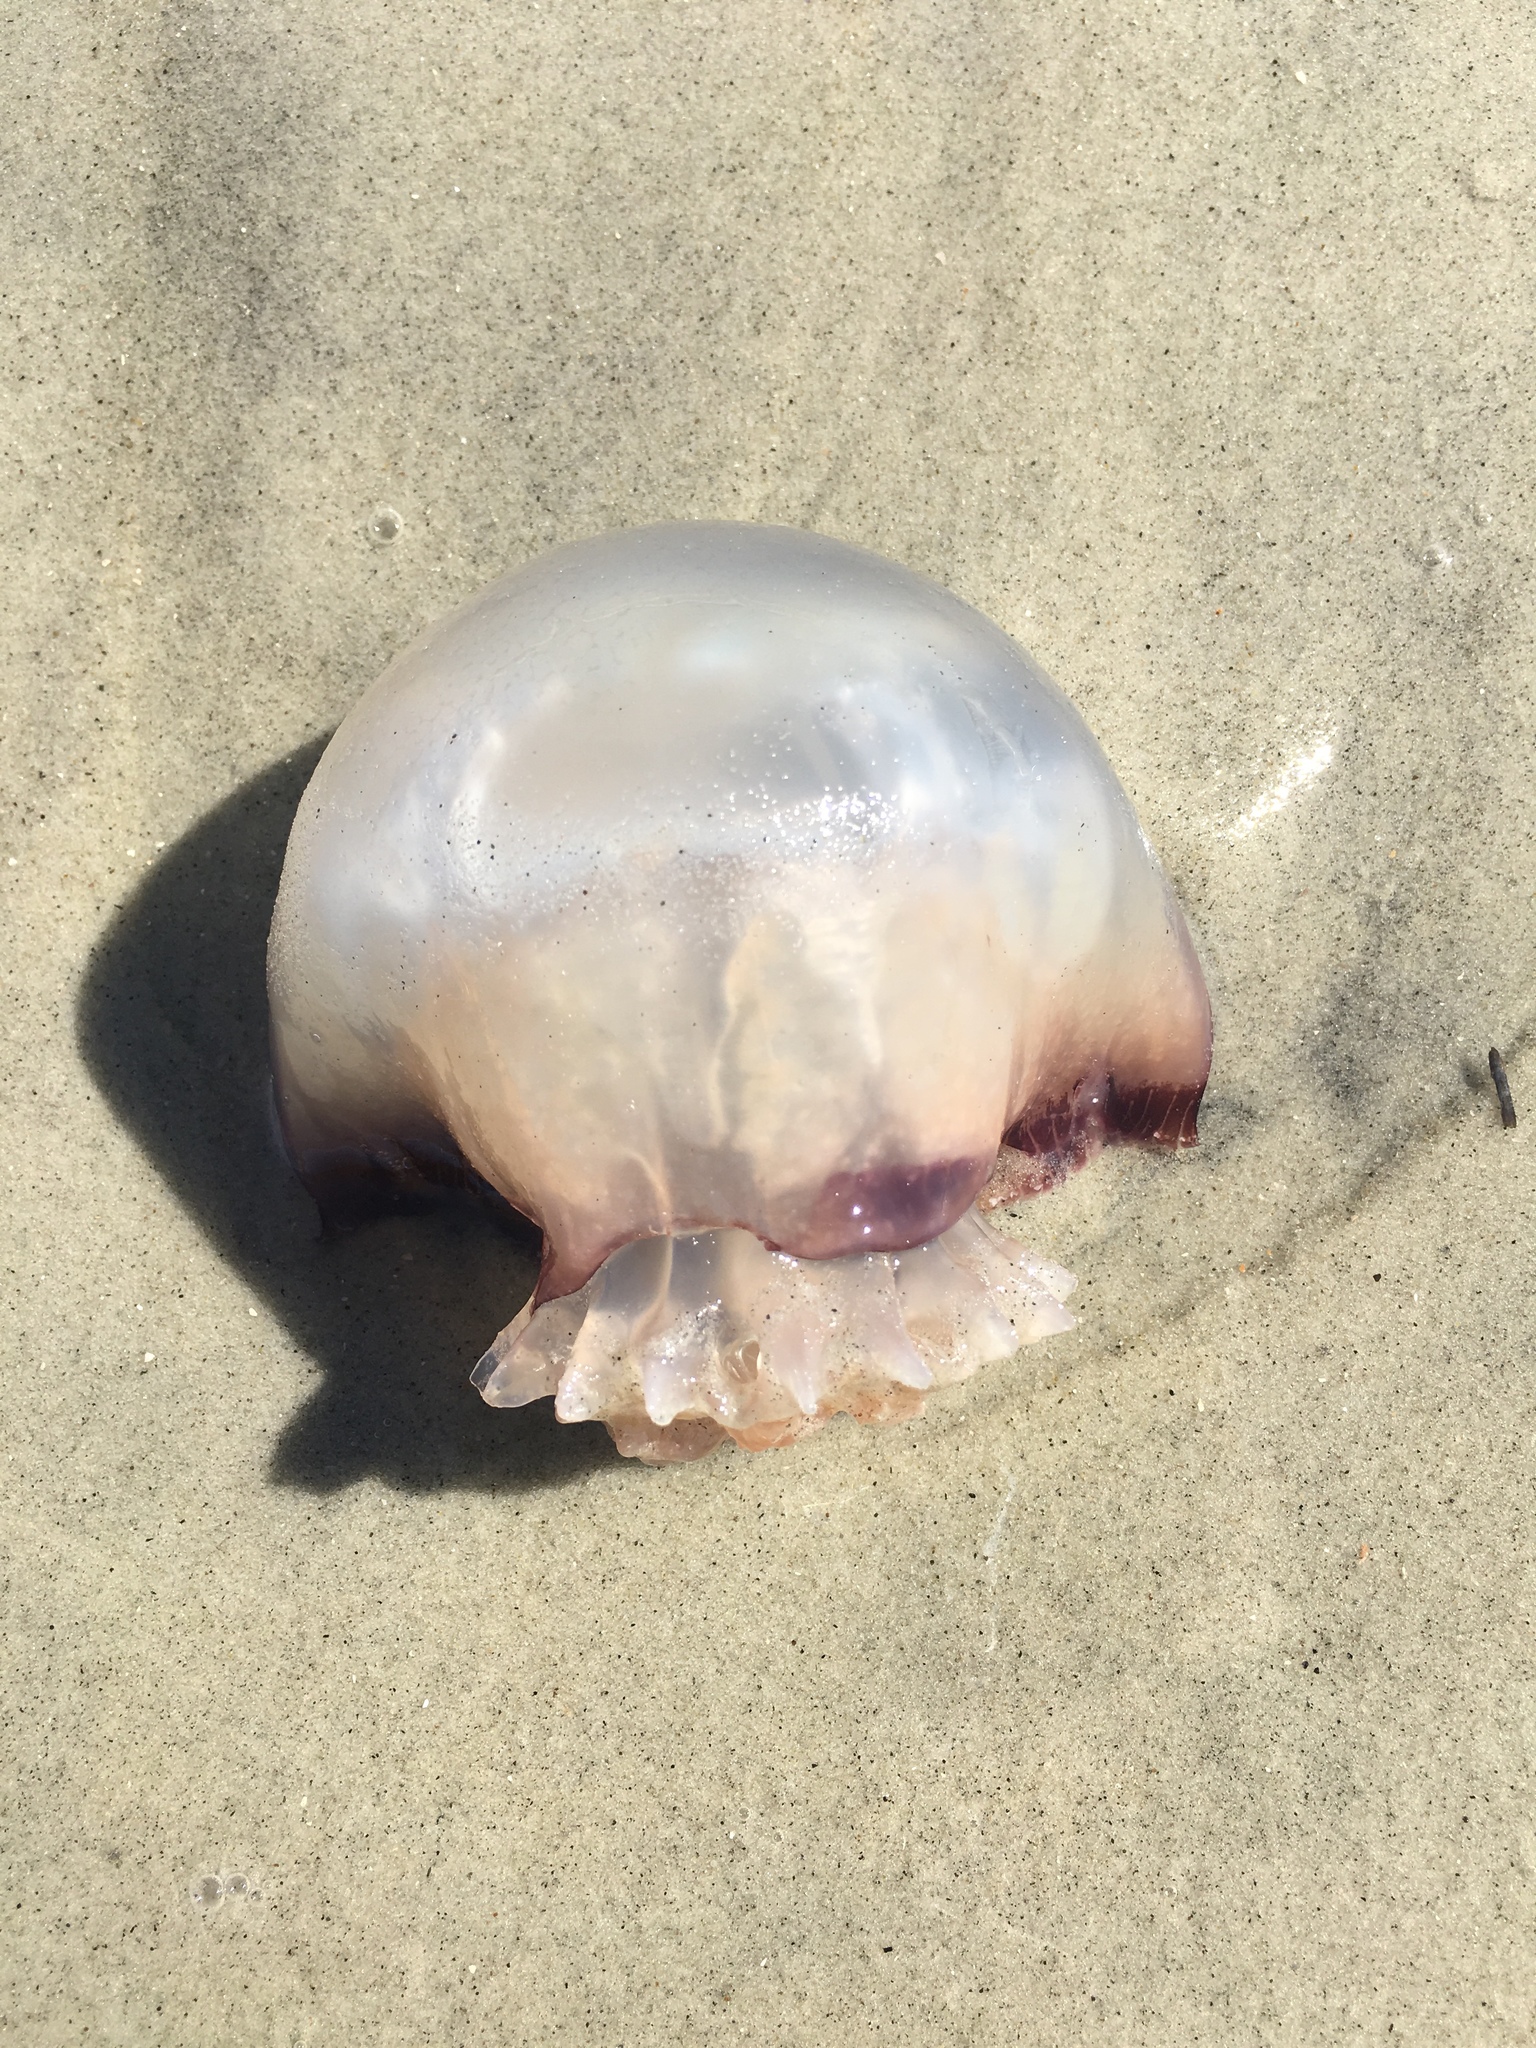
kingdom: Animalia
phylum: Cnidaria
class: Scyphozoa
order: Rhizostomeae
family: Stomolophidae
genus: Stomolophus
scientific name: Stomolophus meleagris
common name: Cabbagehead
